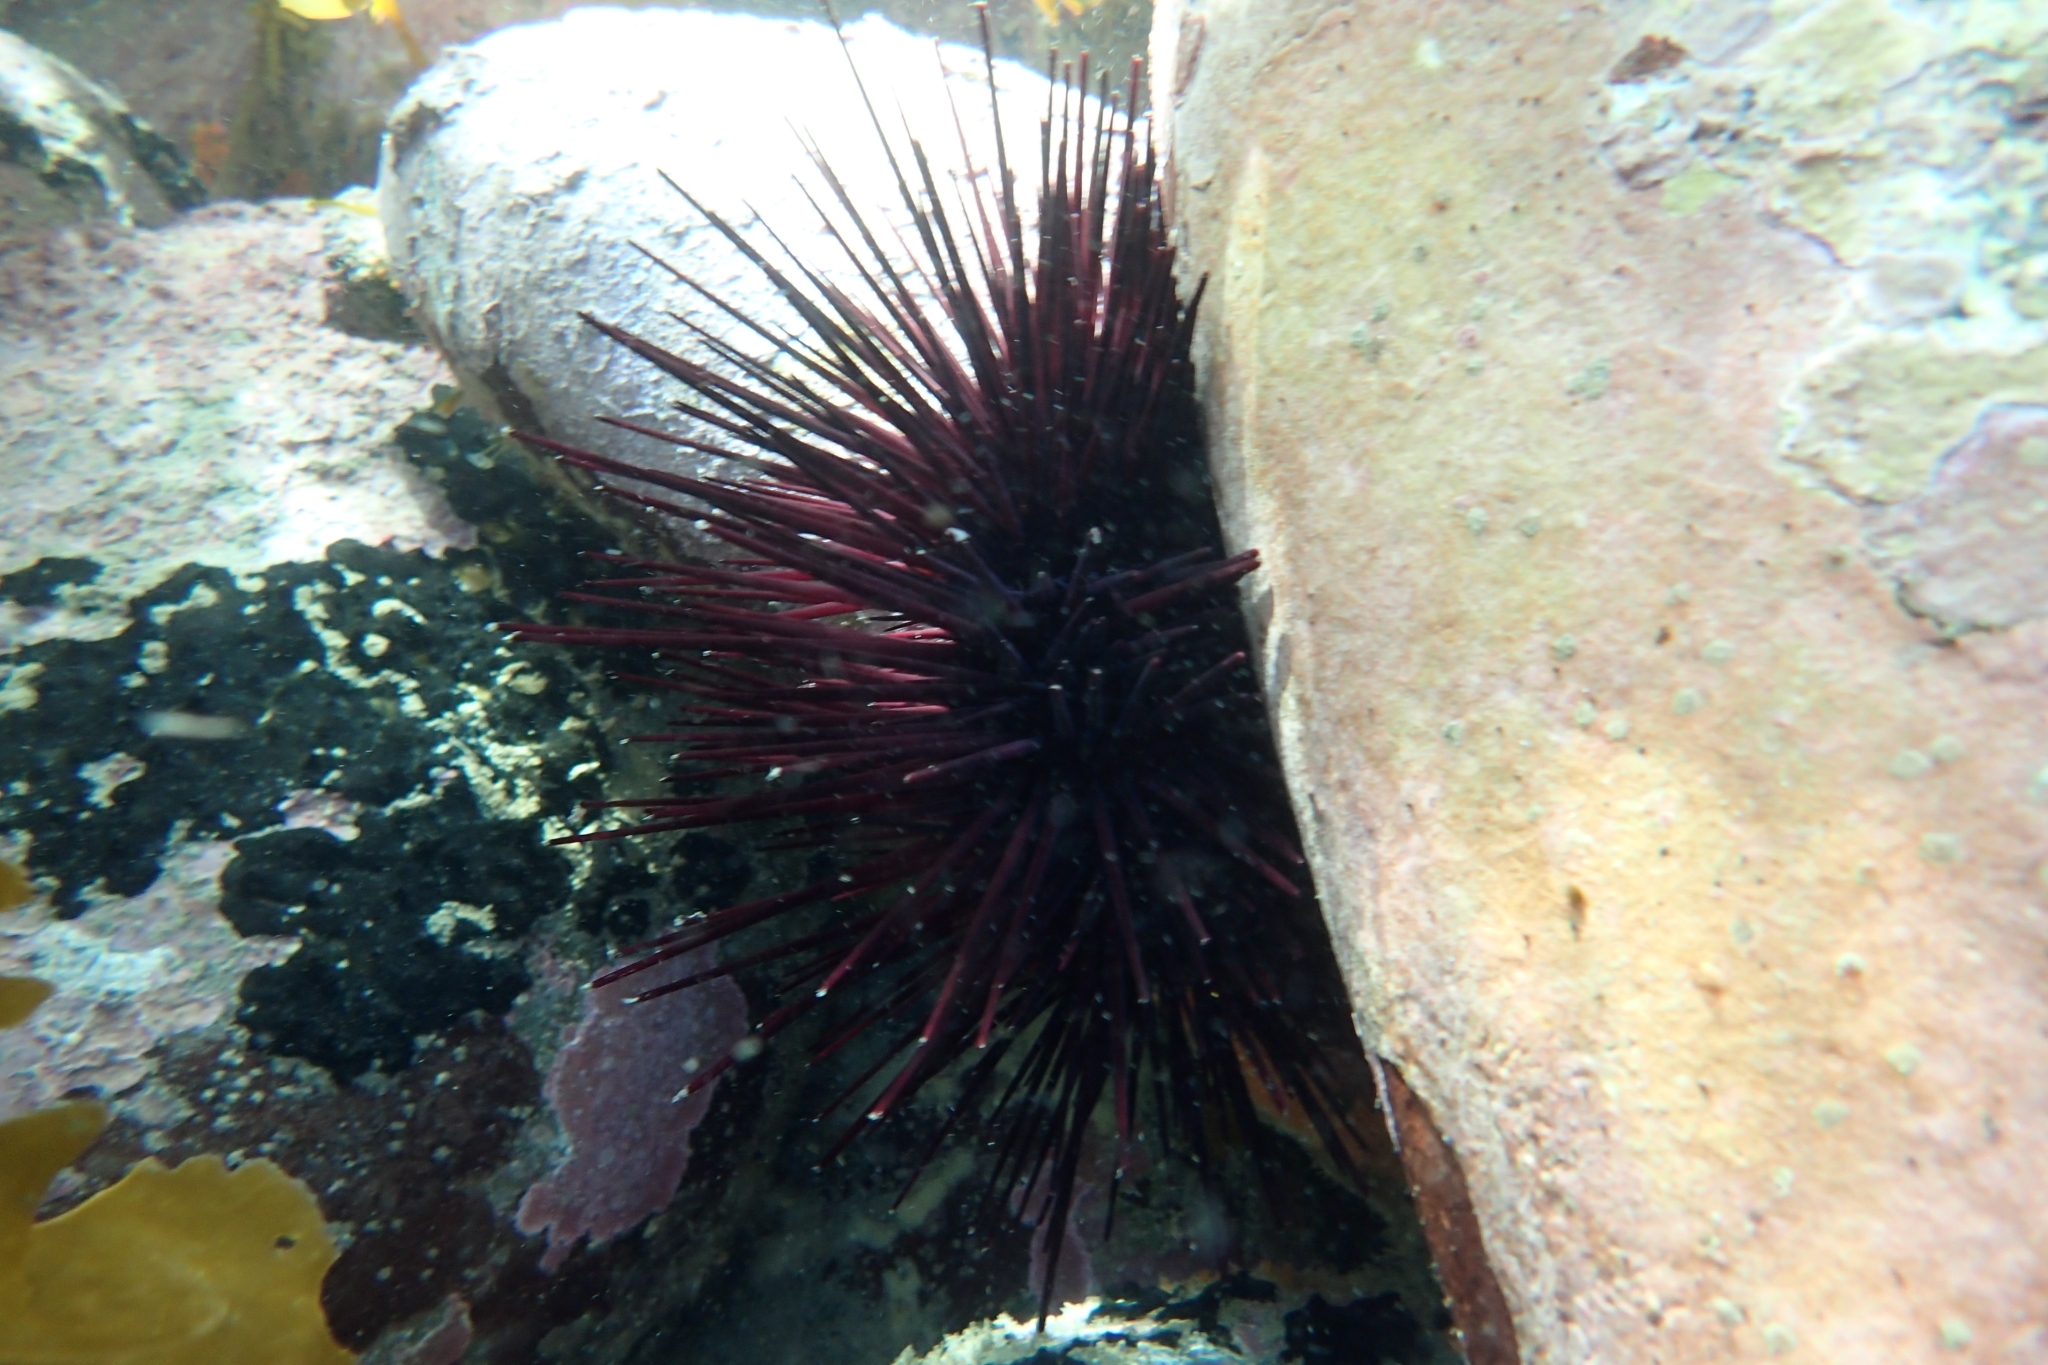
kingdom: Animalia
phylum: Echinodermata
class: Echinoidea
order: Diadematoida
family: Diadematidae
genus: Centrostephanus
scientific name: Centrostephanus rodgersii
